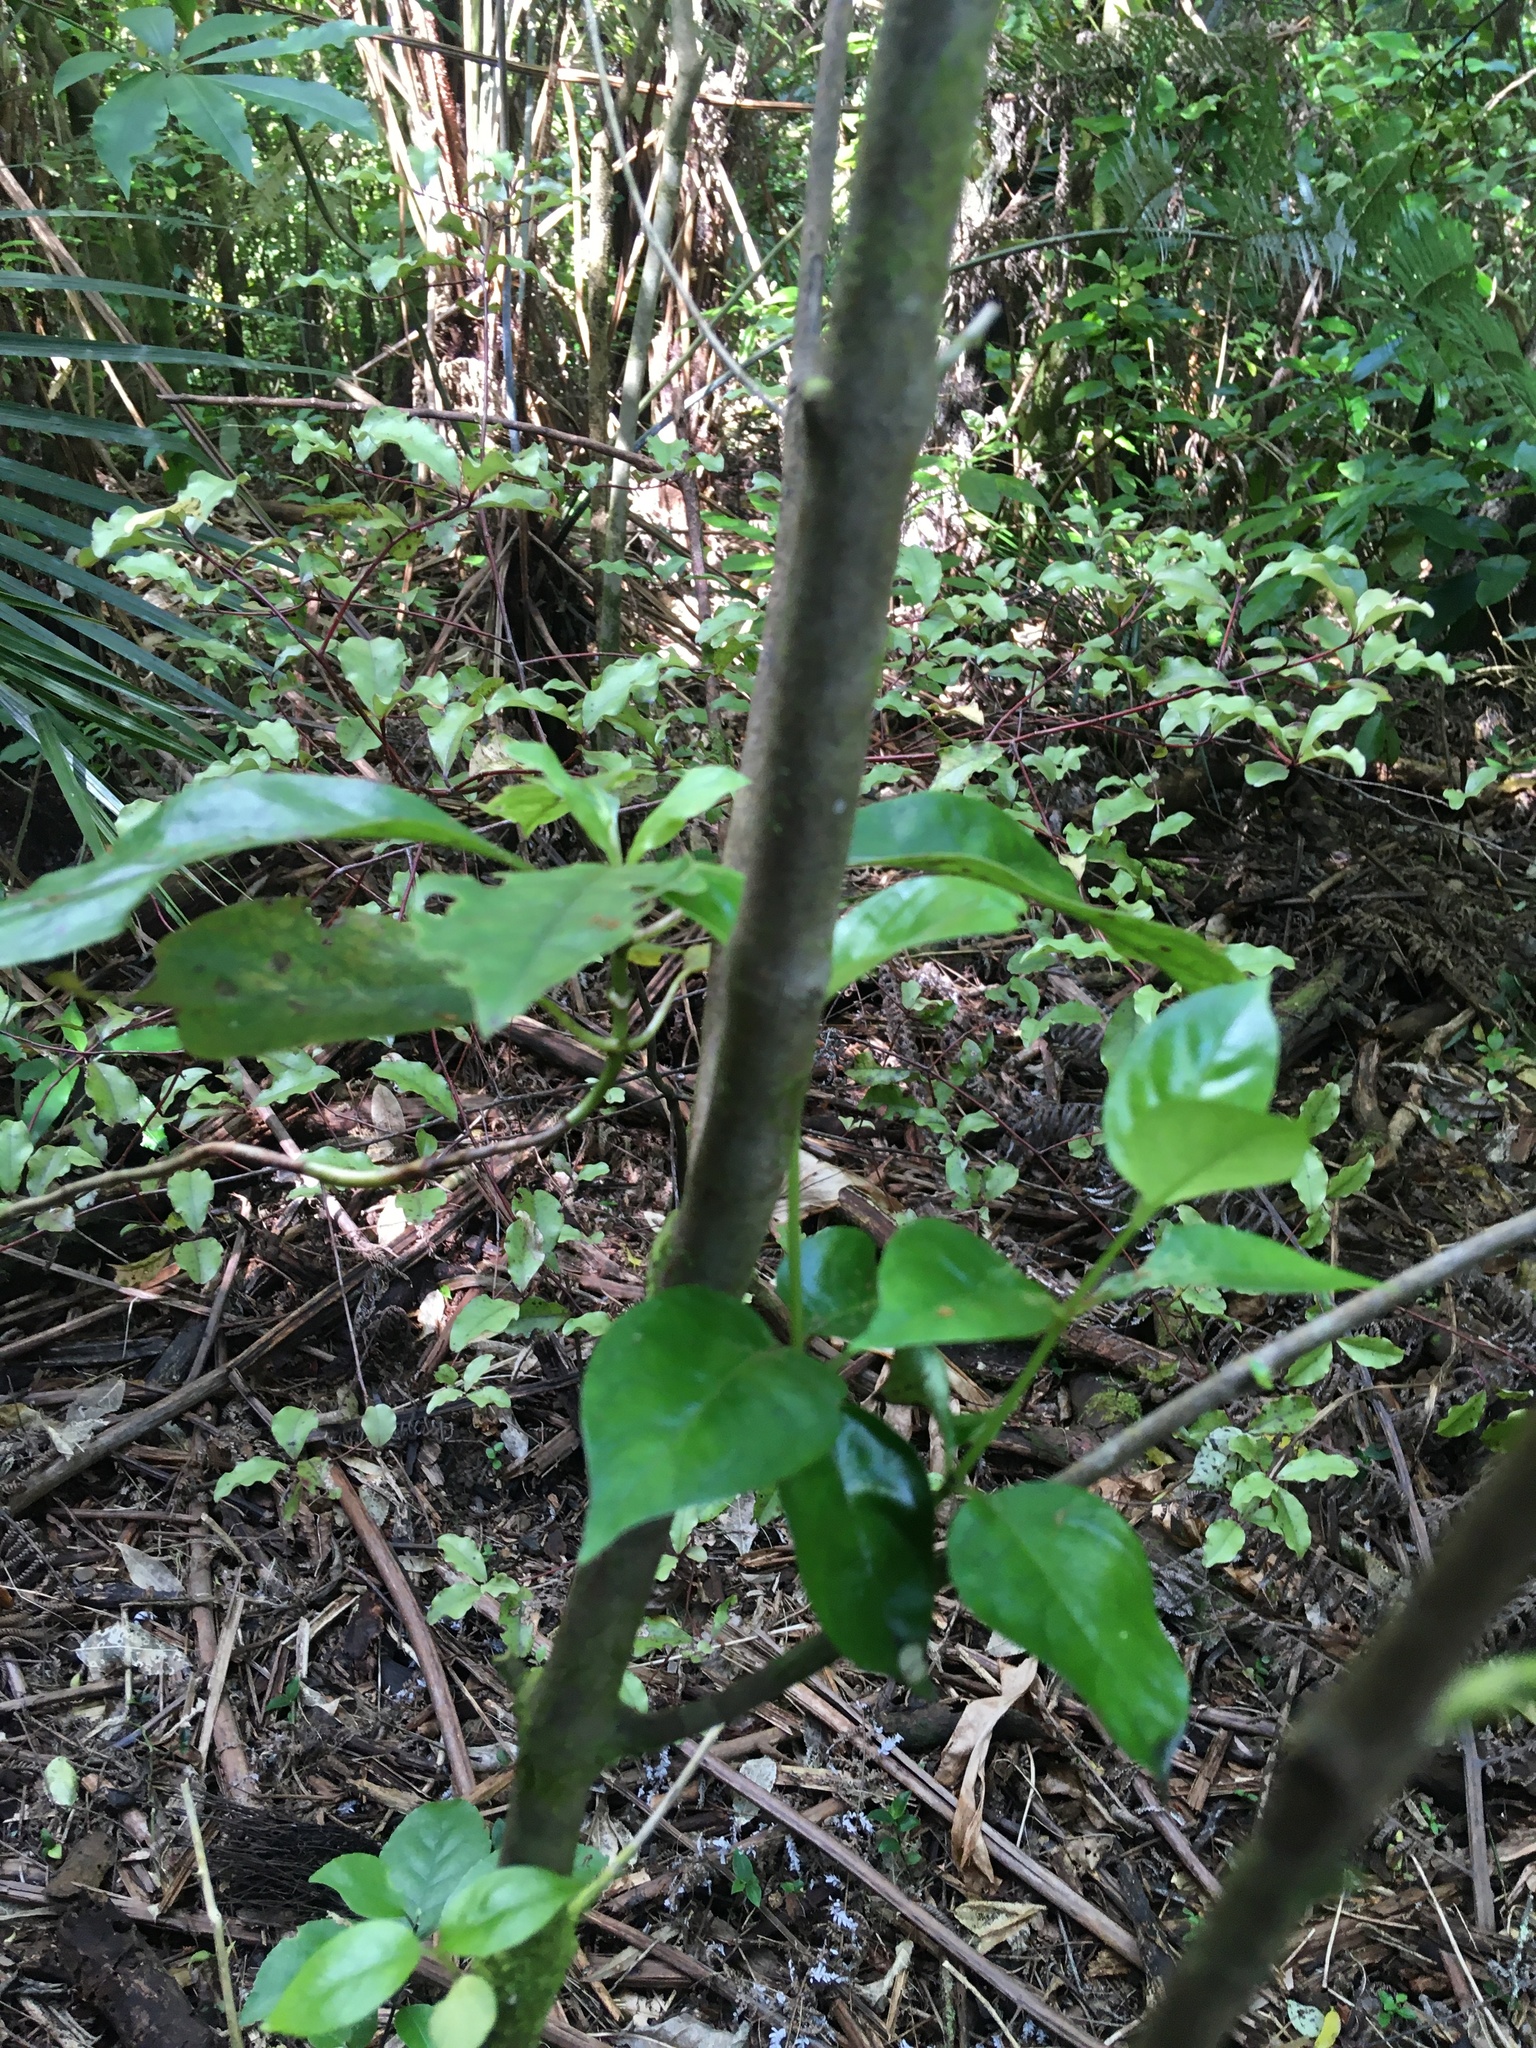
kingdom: Plantae
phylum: Tracheophyta
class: Magnoliopsida
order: Ericales
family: Primulaceae
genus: Myrsine
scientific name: Myrsine australis
